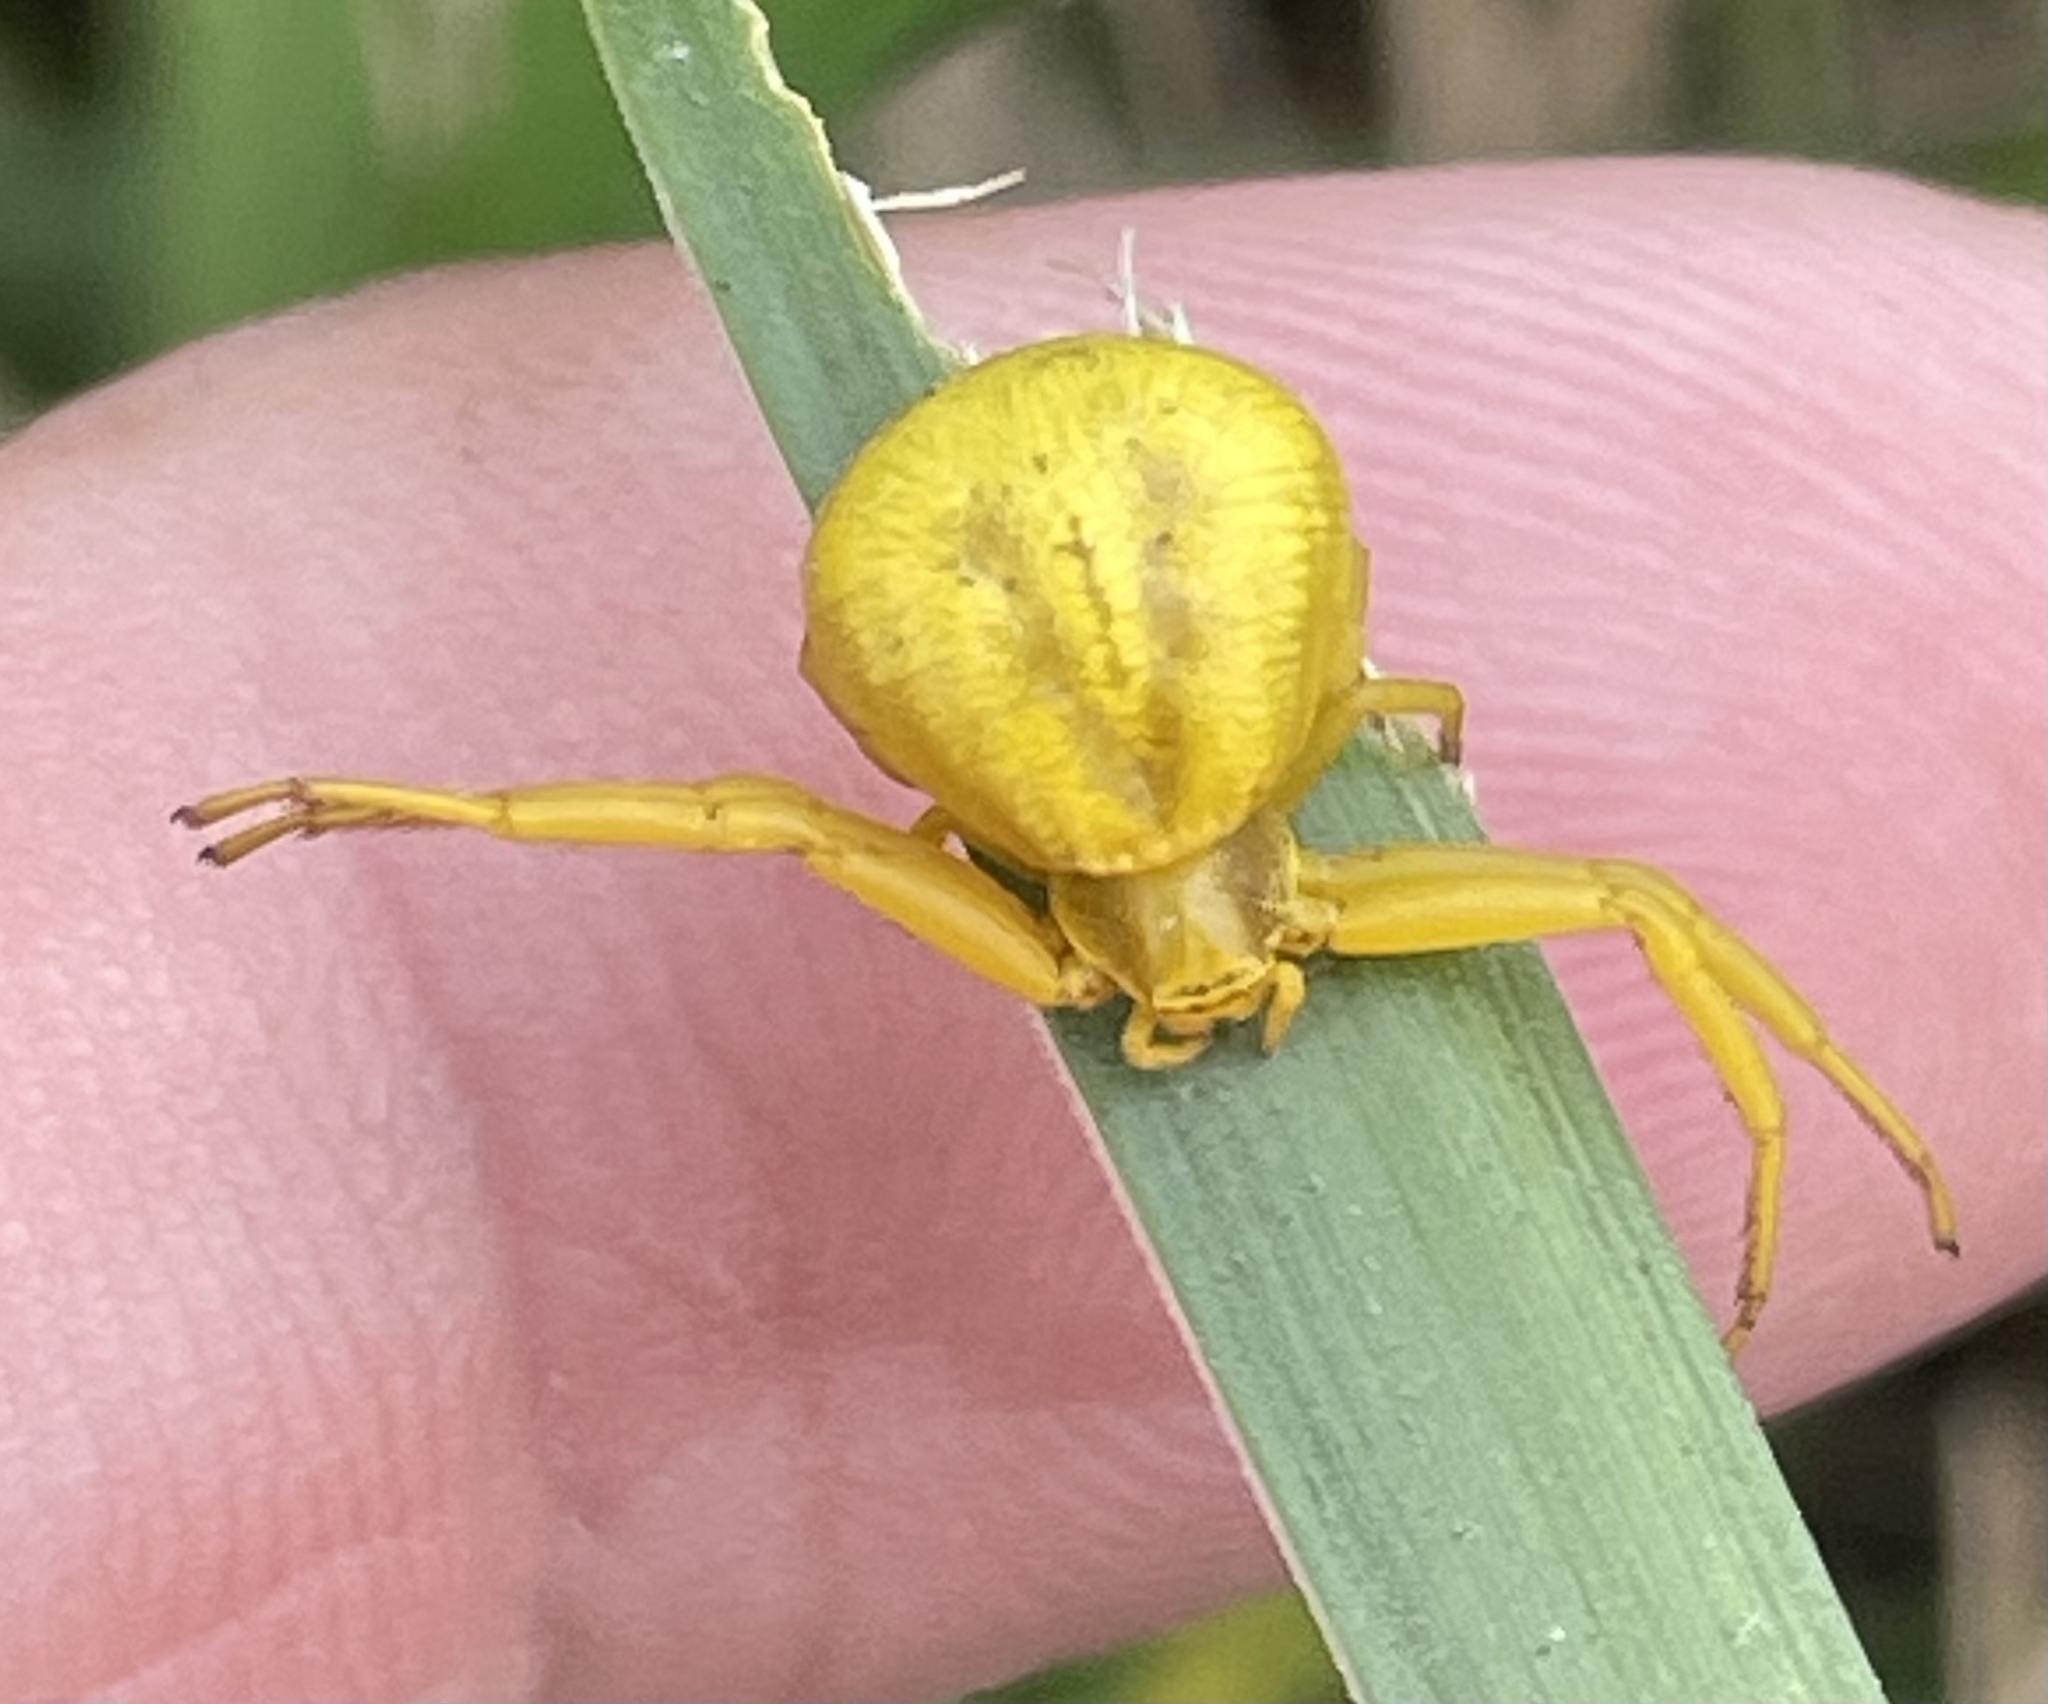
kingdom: Animalia
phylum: Arthropoda
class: Arachnida
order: Araneae
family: Thomisidae
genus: Misumenoides
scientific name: Misumenoides formosipes
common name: White-banded crab spider
